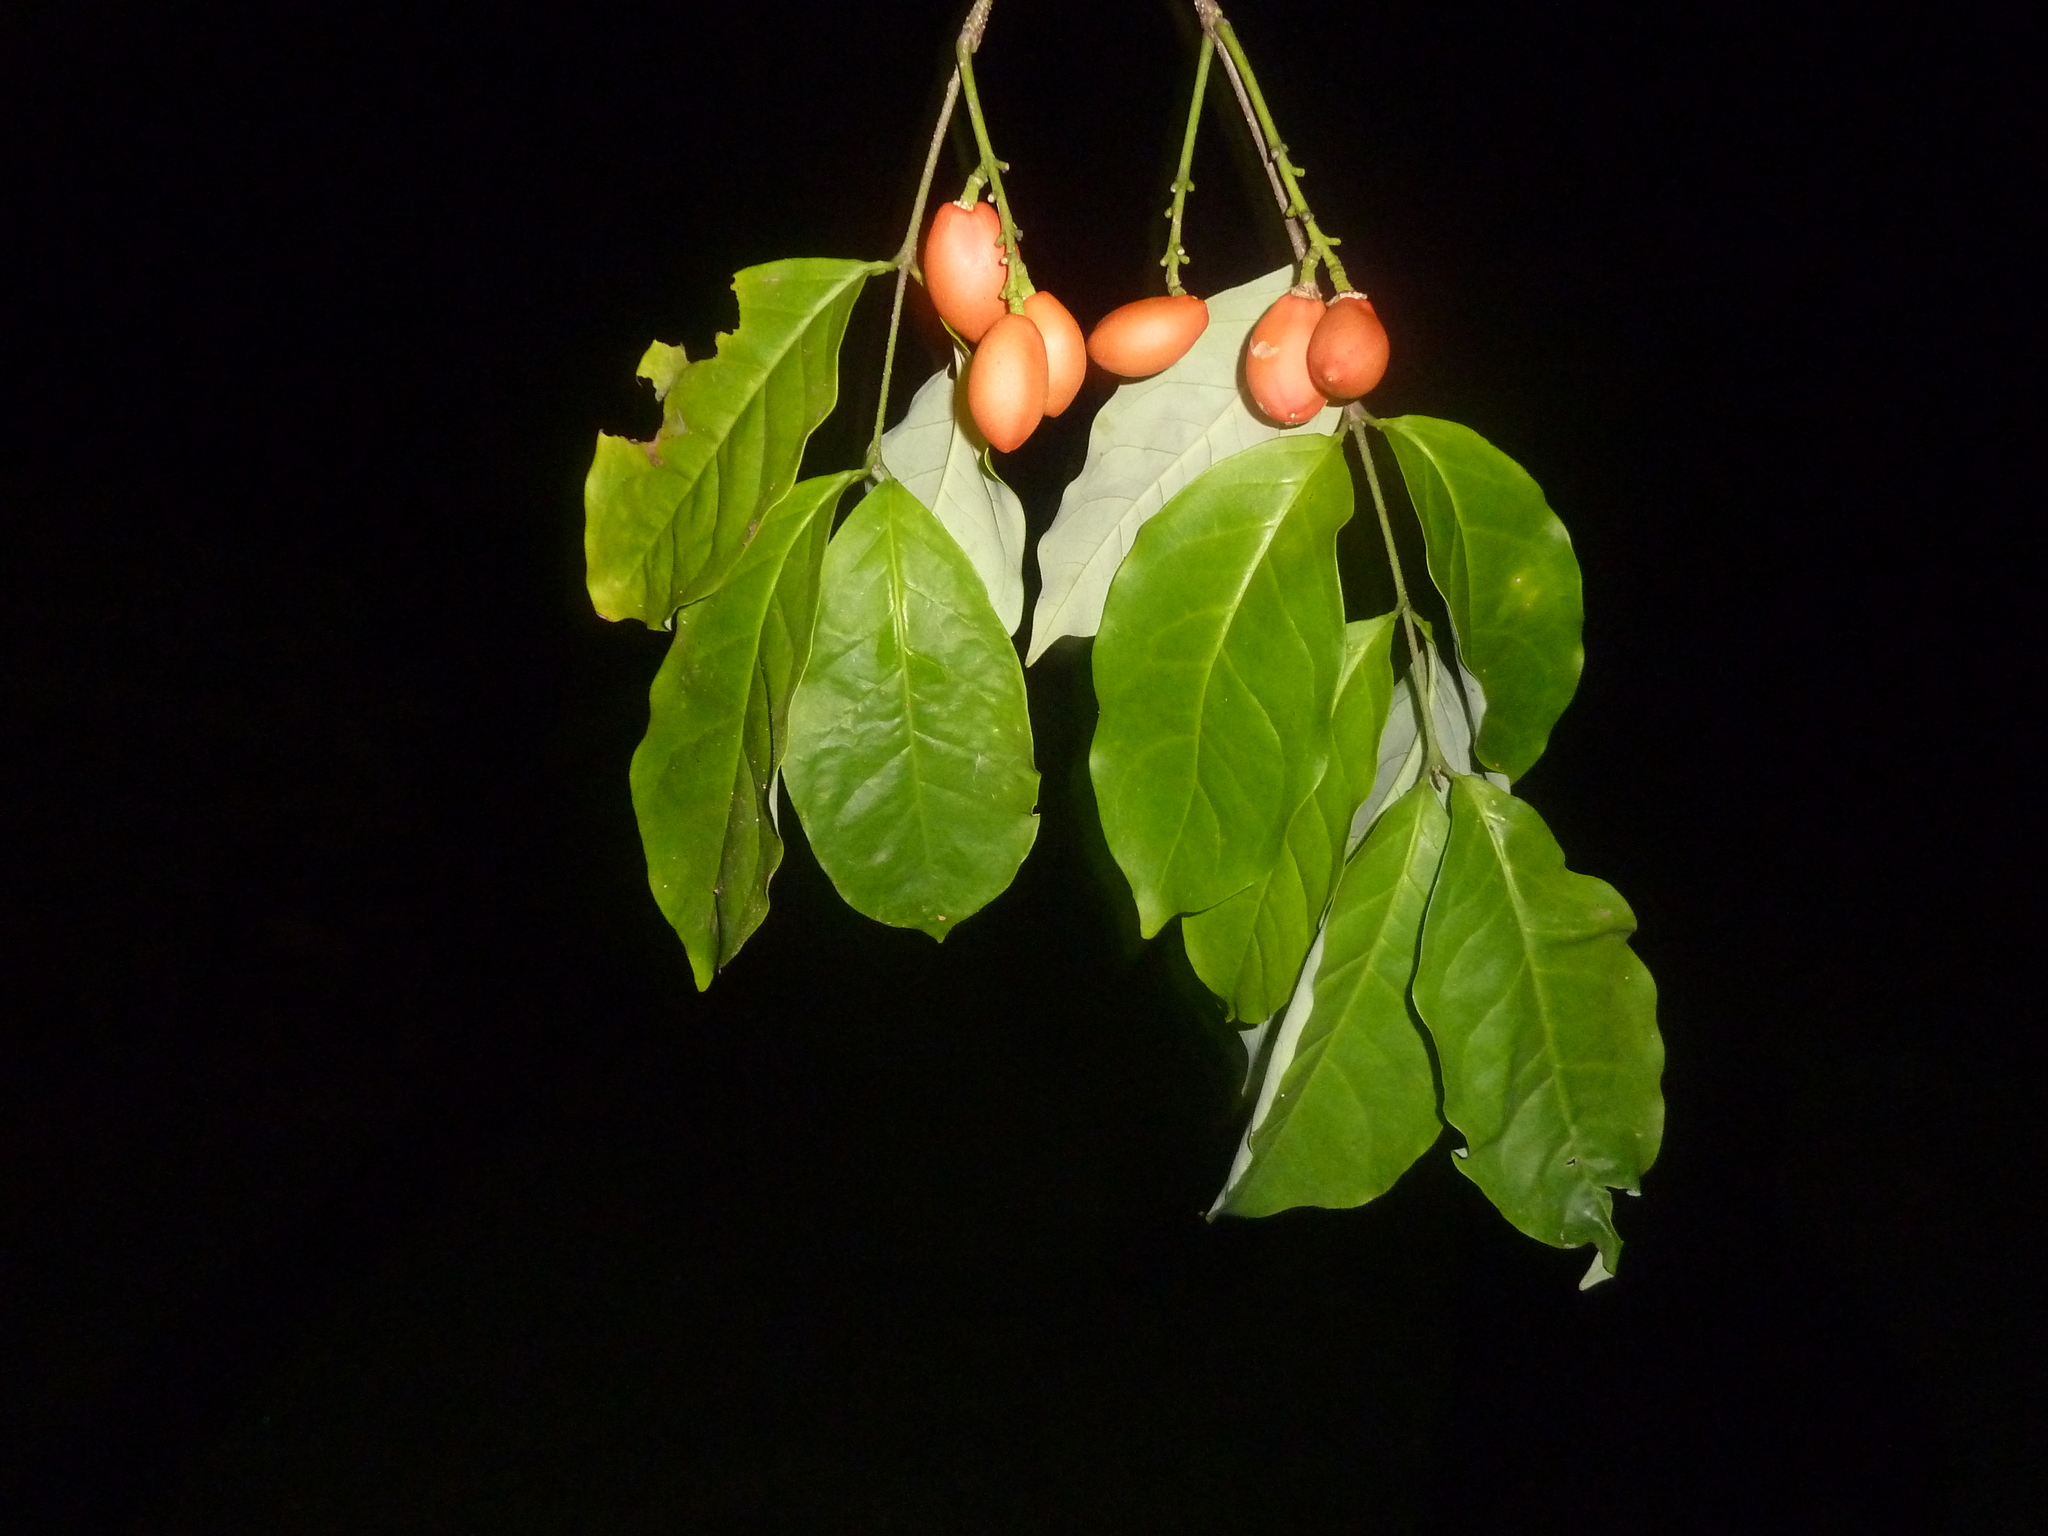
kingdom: Plantae
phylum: Tracheophyta
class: Magnoliopsida
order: Malpighiales
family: Malpighiaceae
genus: Bunchosia
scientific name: Bunchosia nitida
